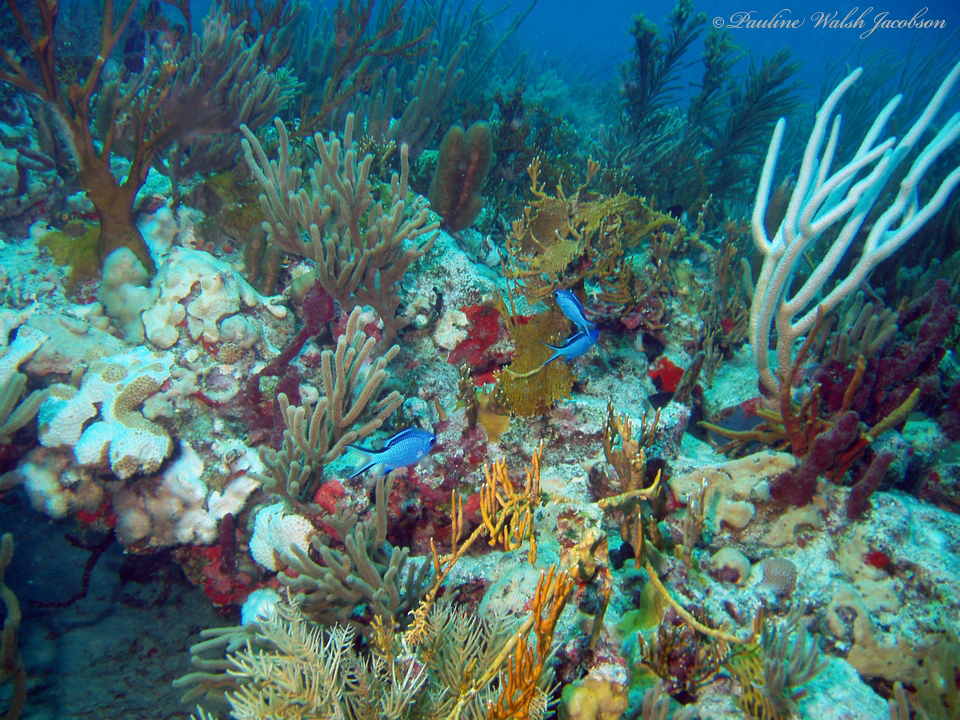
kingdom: Animalia
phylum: Chordata
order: Perciformes
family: Pomacentridae
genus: Chromis
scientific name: Chromis cyanea
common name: Blue chromis
